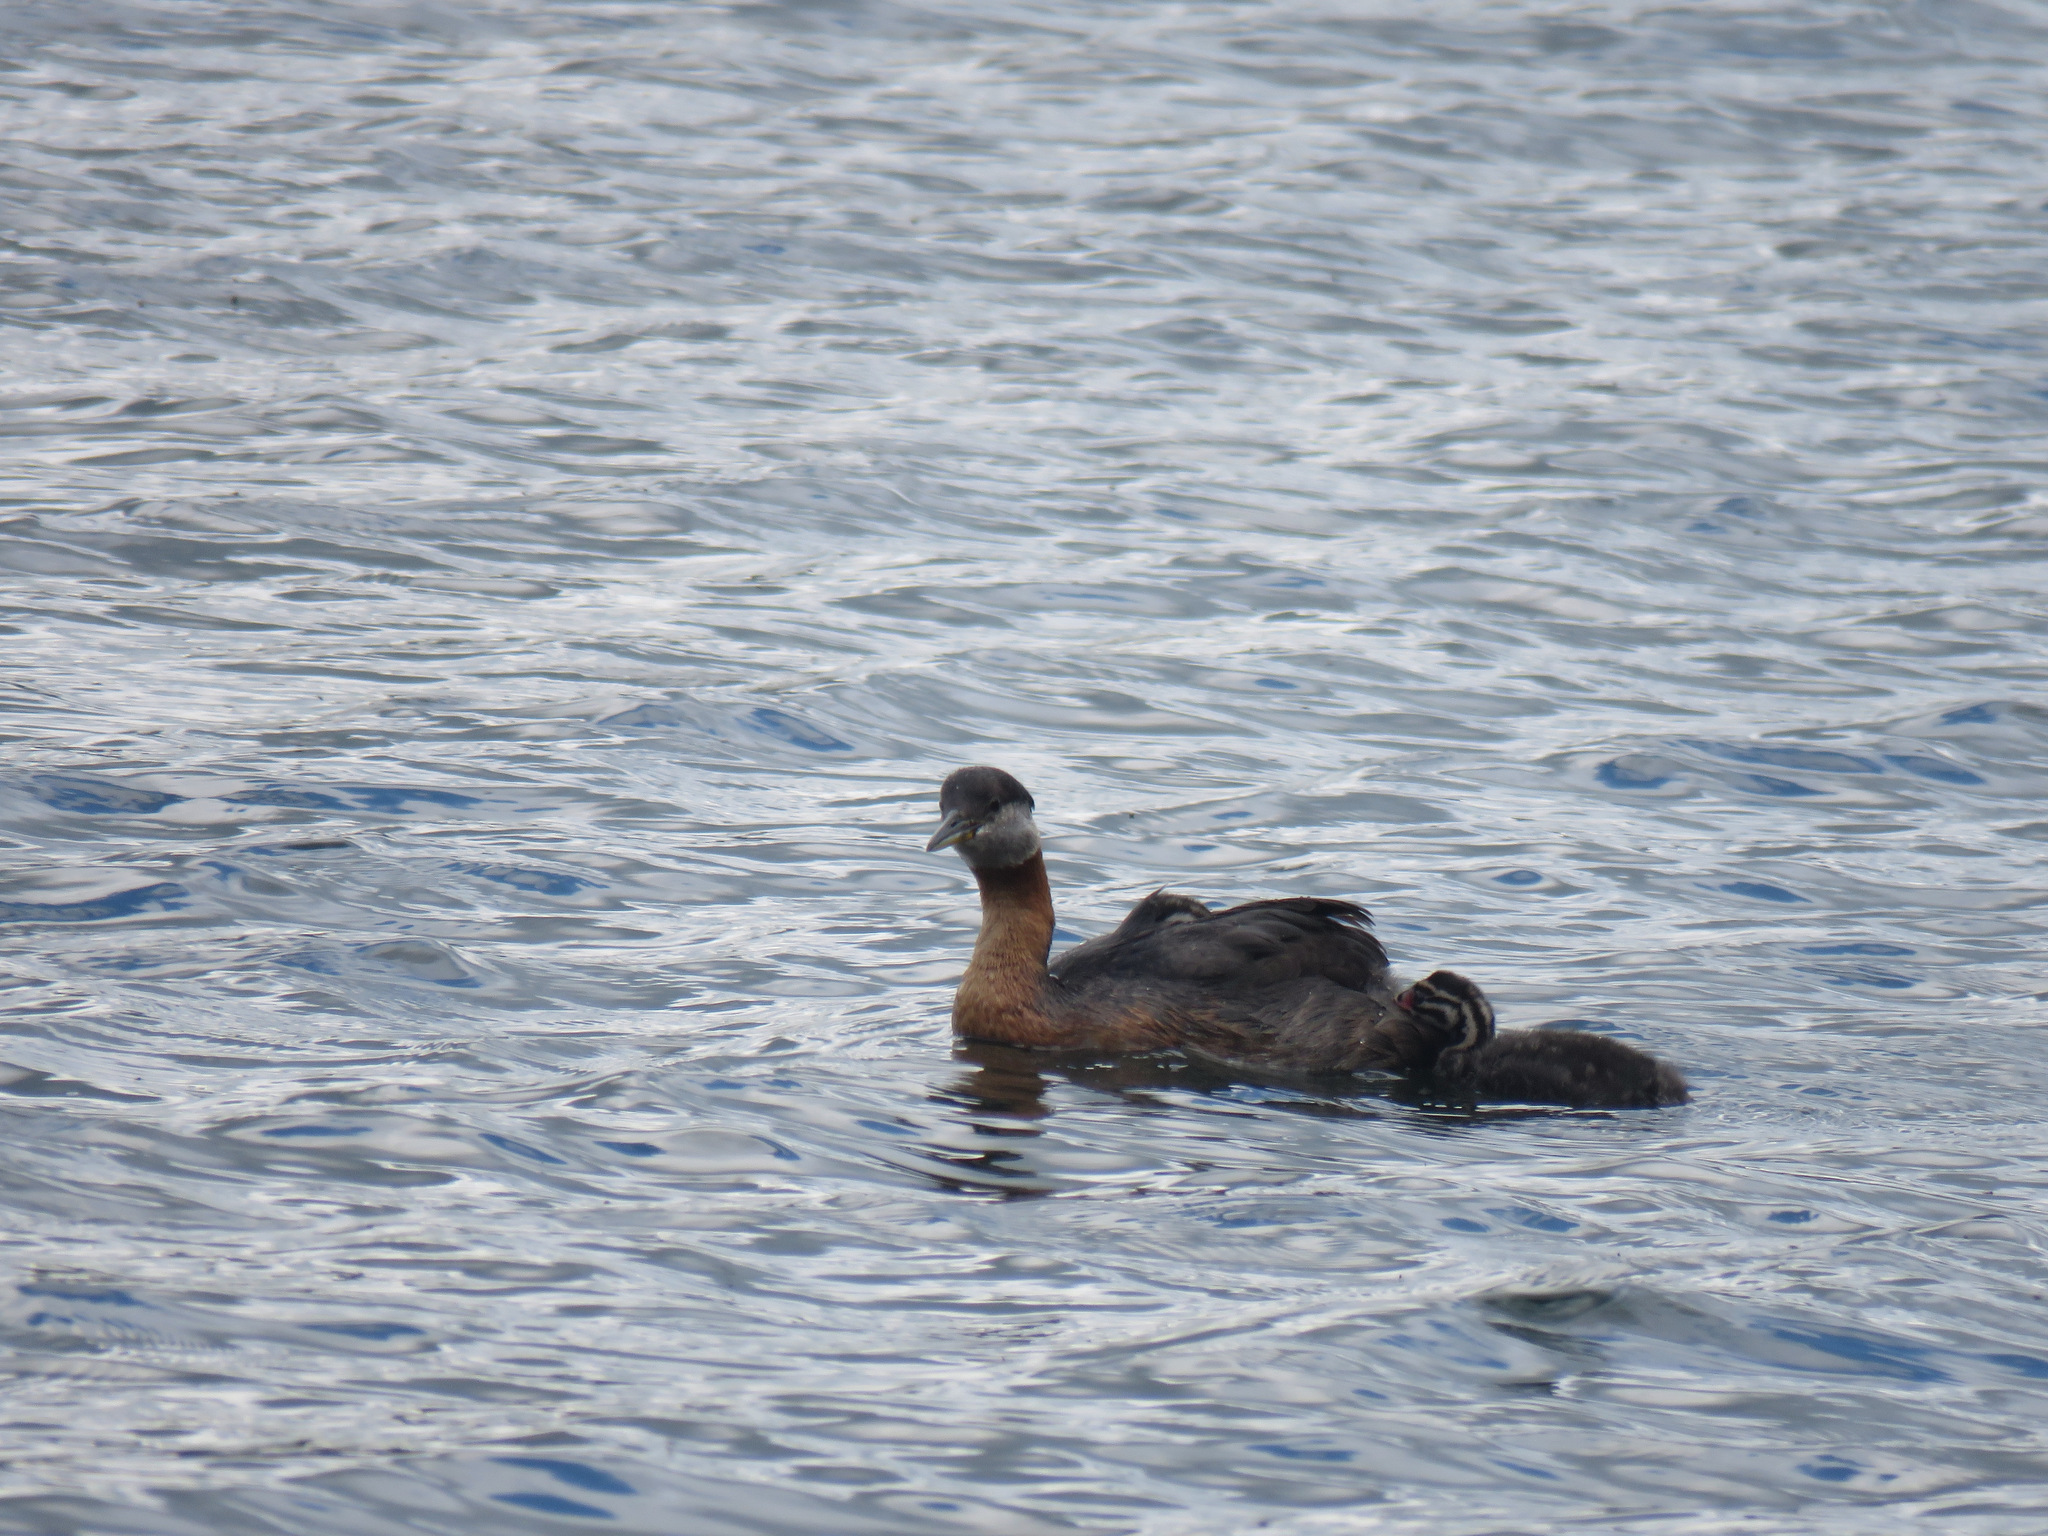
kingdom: Animalia
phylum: Chordata
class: Aves
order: Podicipediformes
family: Podicipedidae
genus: Podiceps
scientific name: Podiceps grisegena
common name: Red-necked grebe
